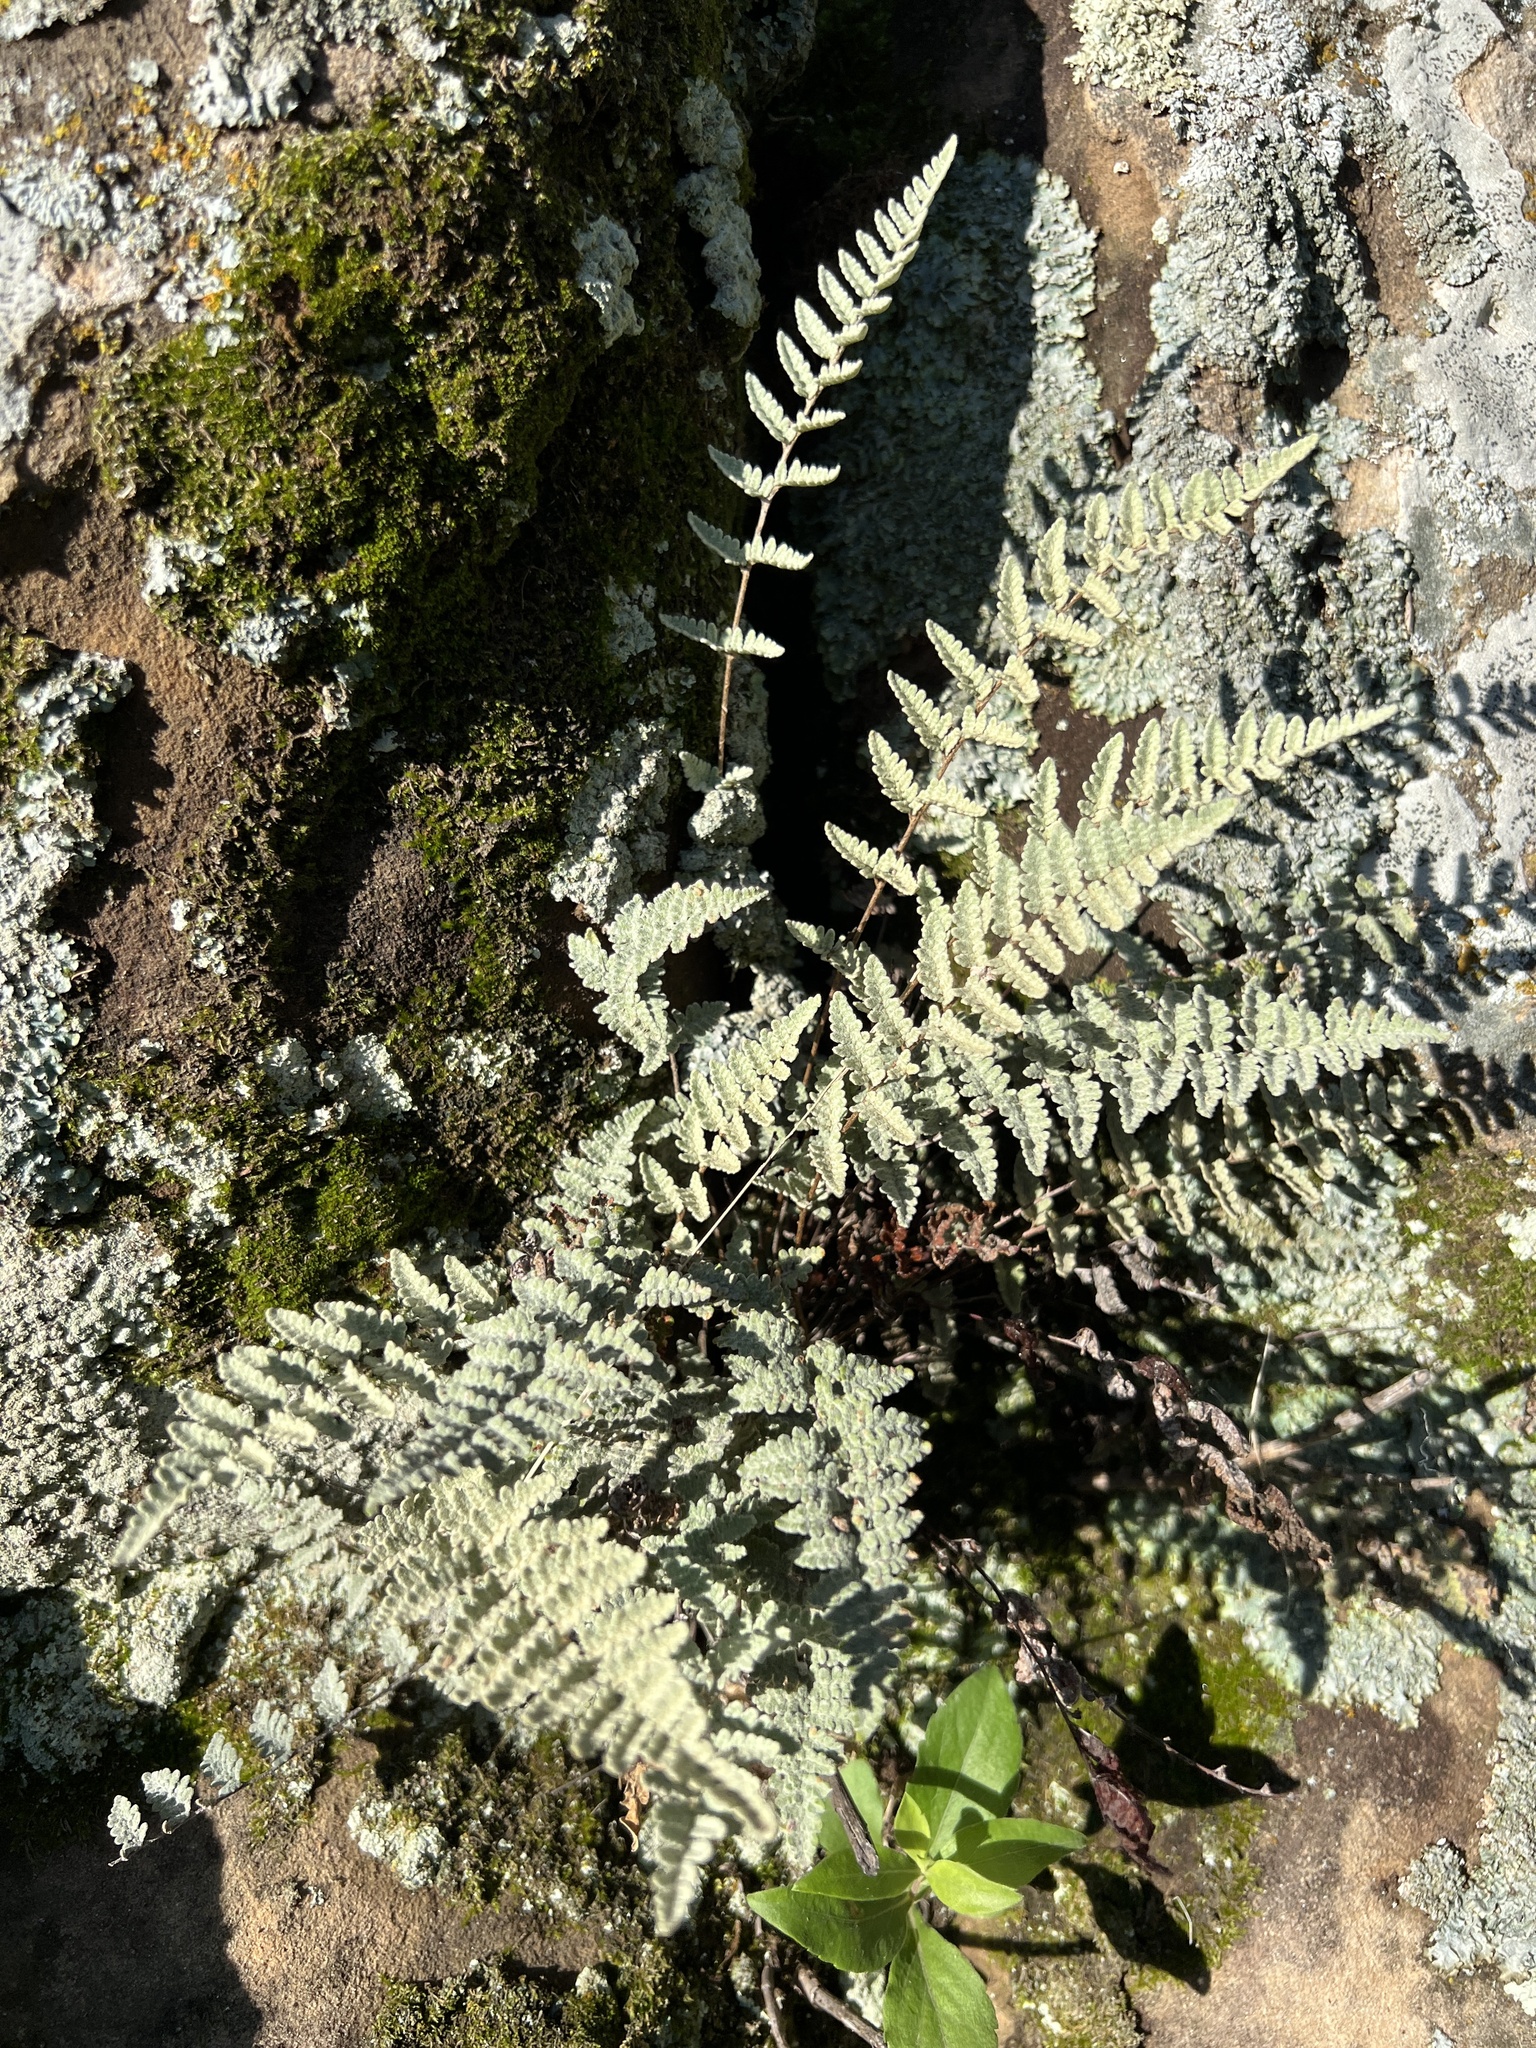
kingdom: Plantae
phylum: Tracheophyta
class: Polypodiopsida
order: Polypodiales
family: Pteridaceae
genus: Myriopteris
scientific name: Myriopteris rufa
